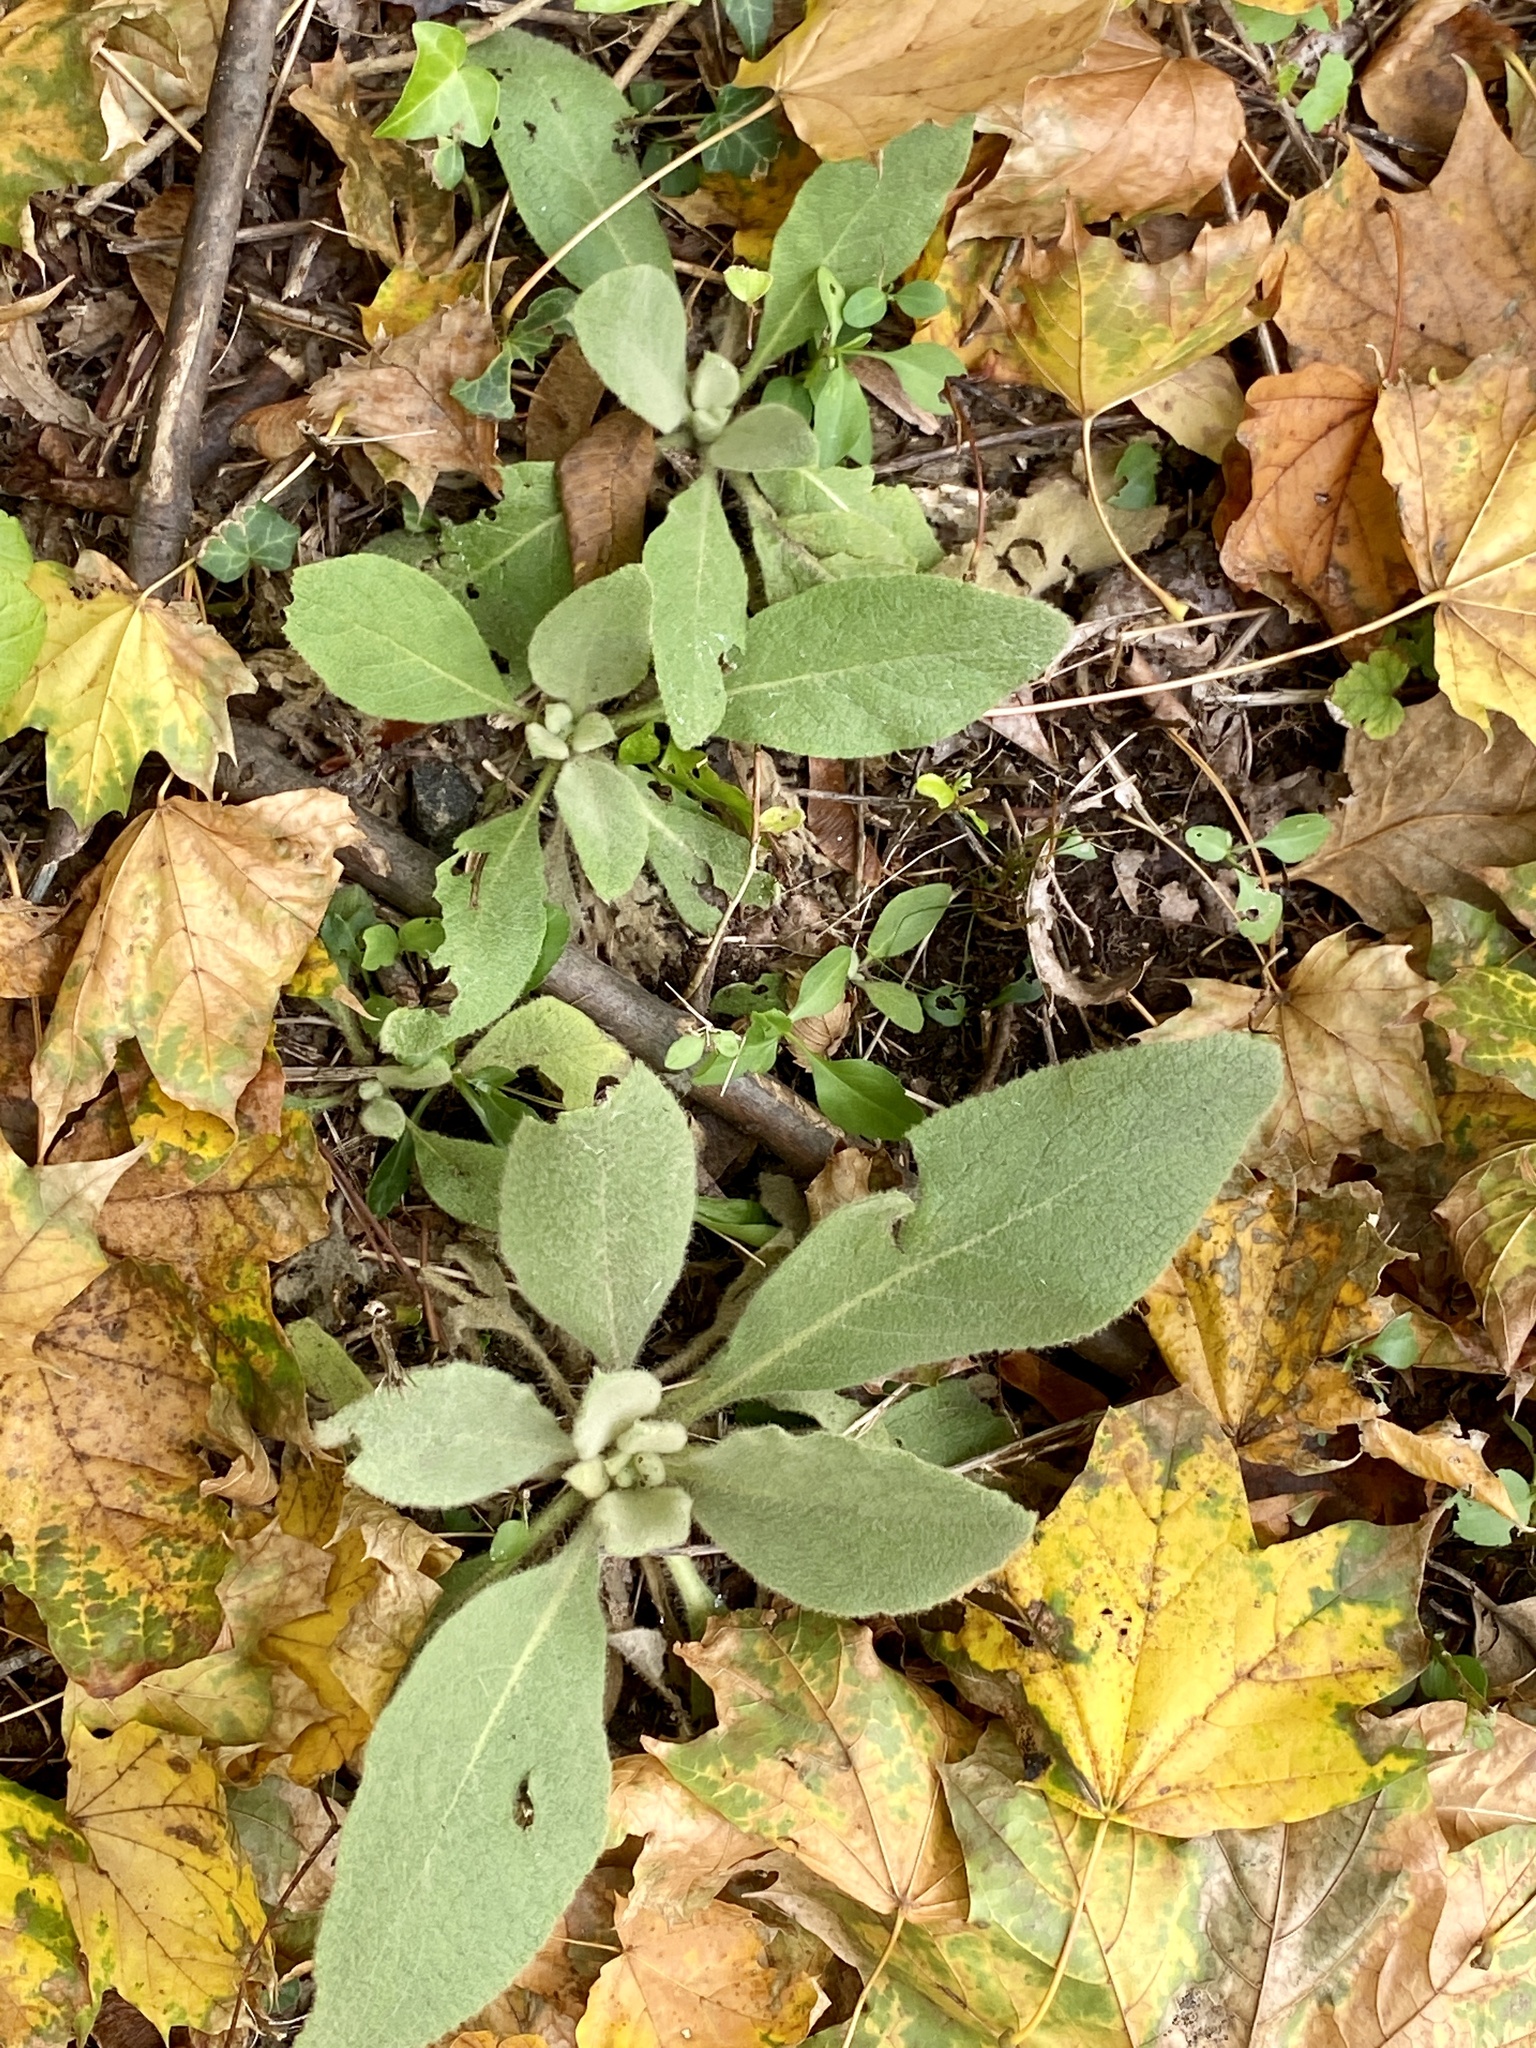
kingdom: Plantae
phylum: Tracheophyta
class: Magnoliopsida
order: Lamiales
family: Scrophulariaceae
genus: Verbascum
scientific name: Verbascum thapsus
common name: Common mullein
